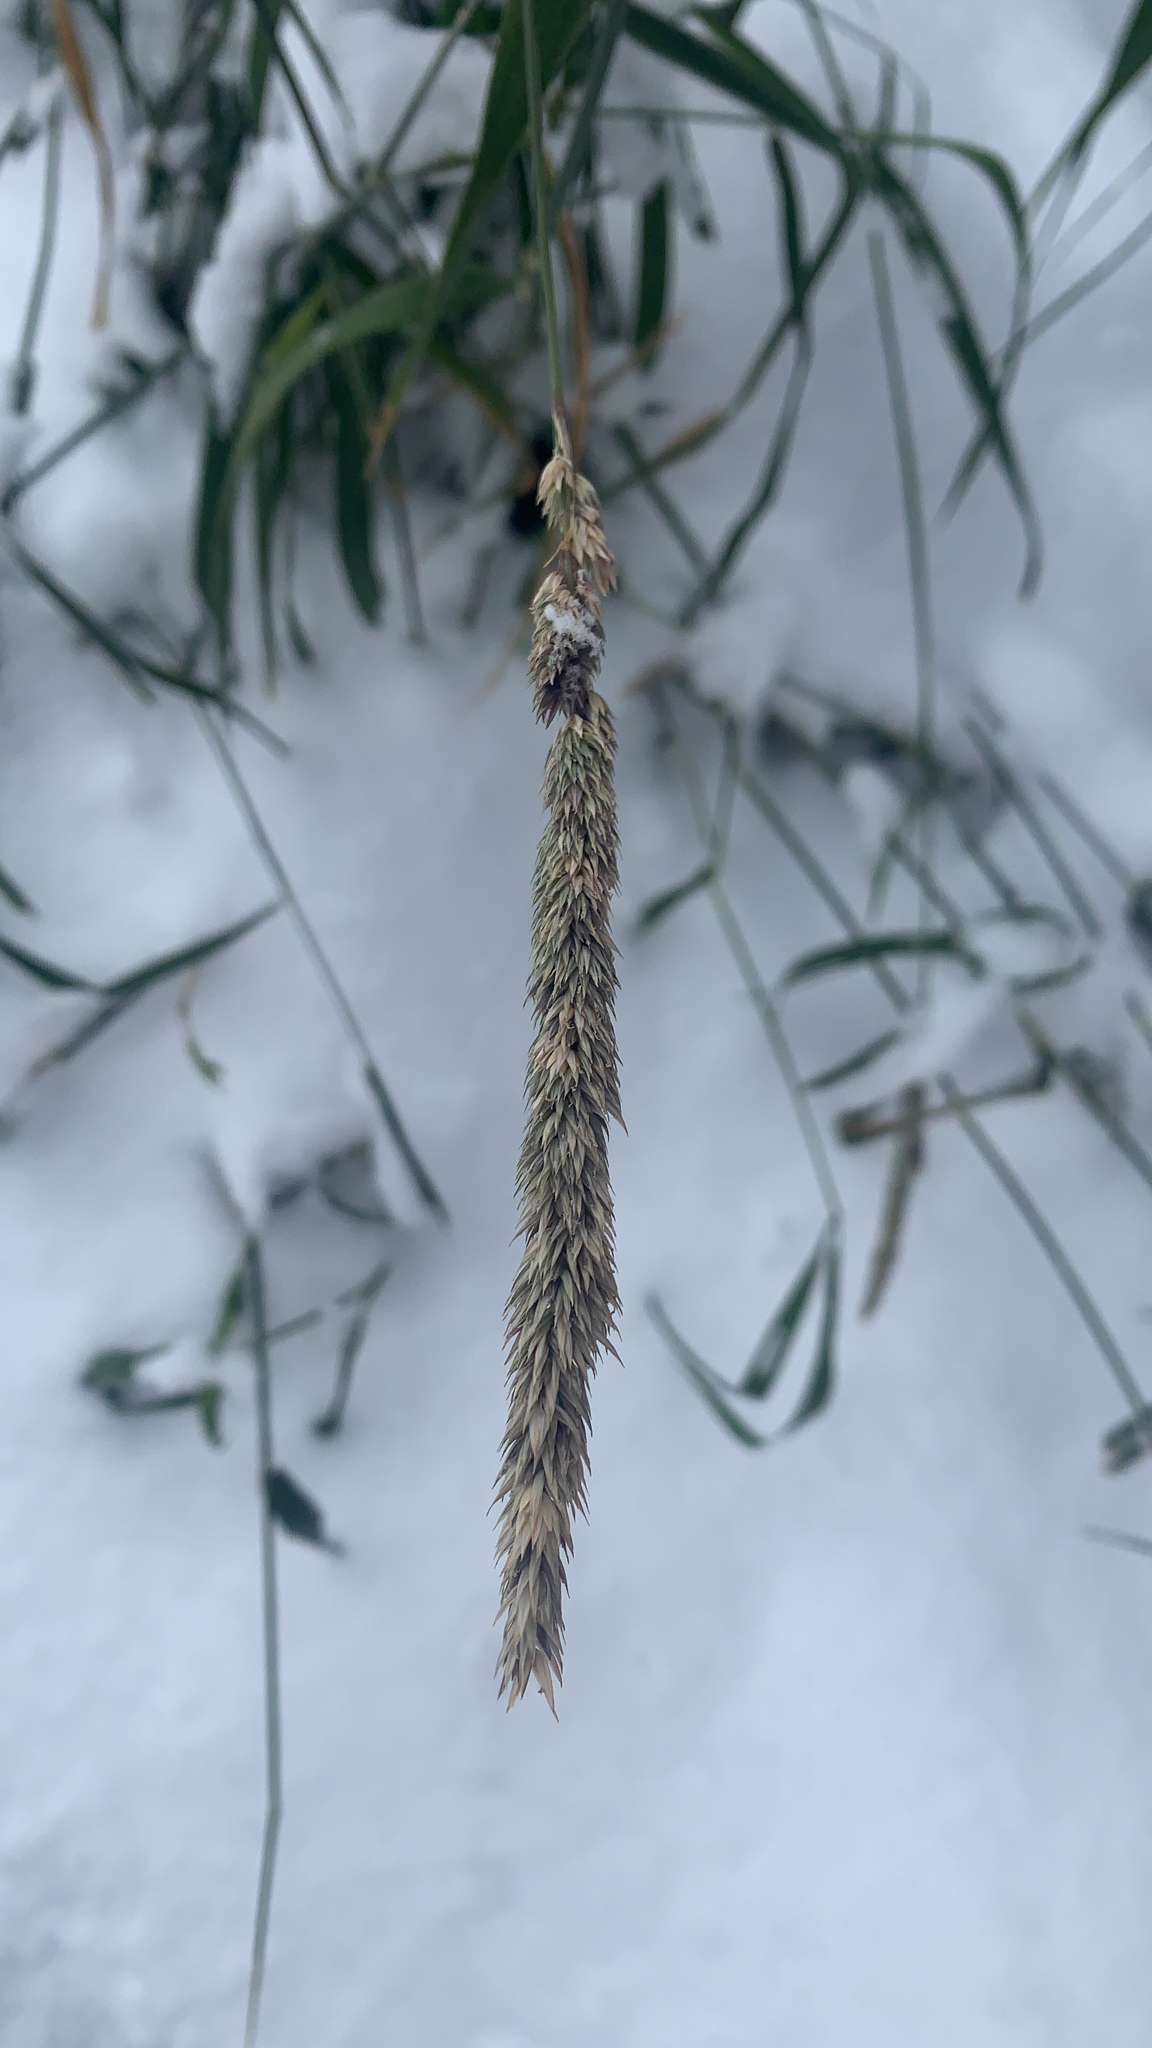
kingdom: Plantae
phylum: Tracheophyta
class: Liliopsida
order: Poales
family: Poaceae
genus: Phalaris
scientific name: Phalaris arundinacea
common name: Reed canary-grass
